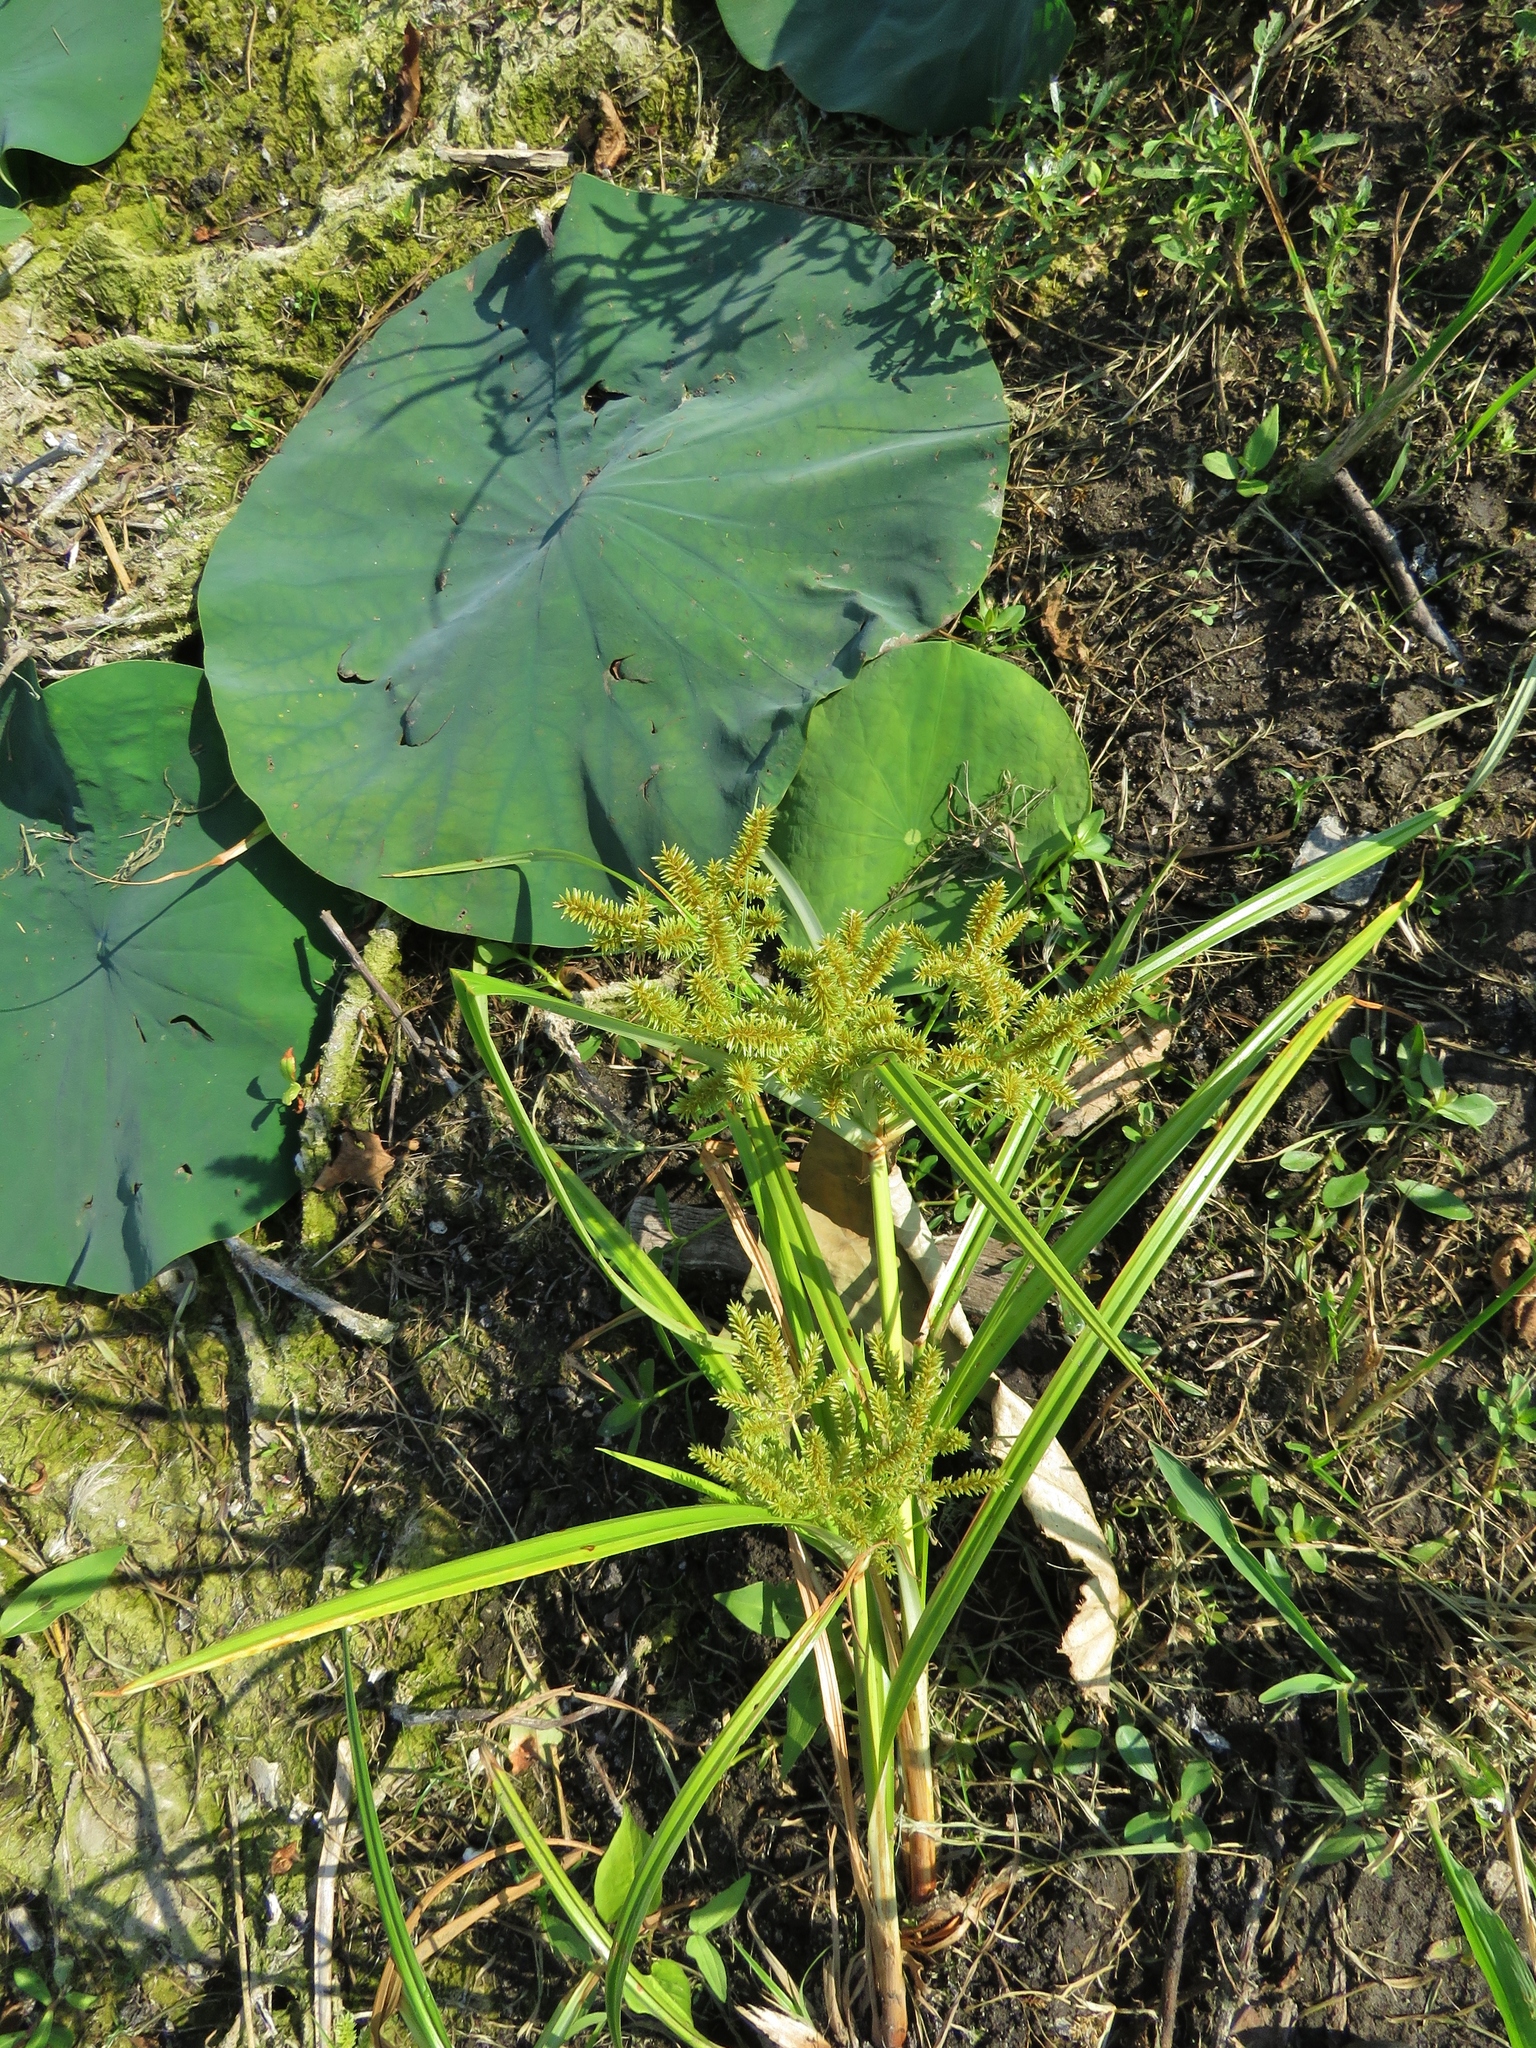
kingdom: Plantae
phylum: Tracheophyta
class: Liliopsida
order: Poales
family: Cyperaceae
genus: Cyperus
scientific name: Cyperus erythrorhizos
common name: Red-root flat sedge
